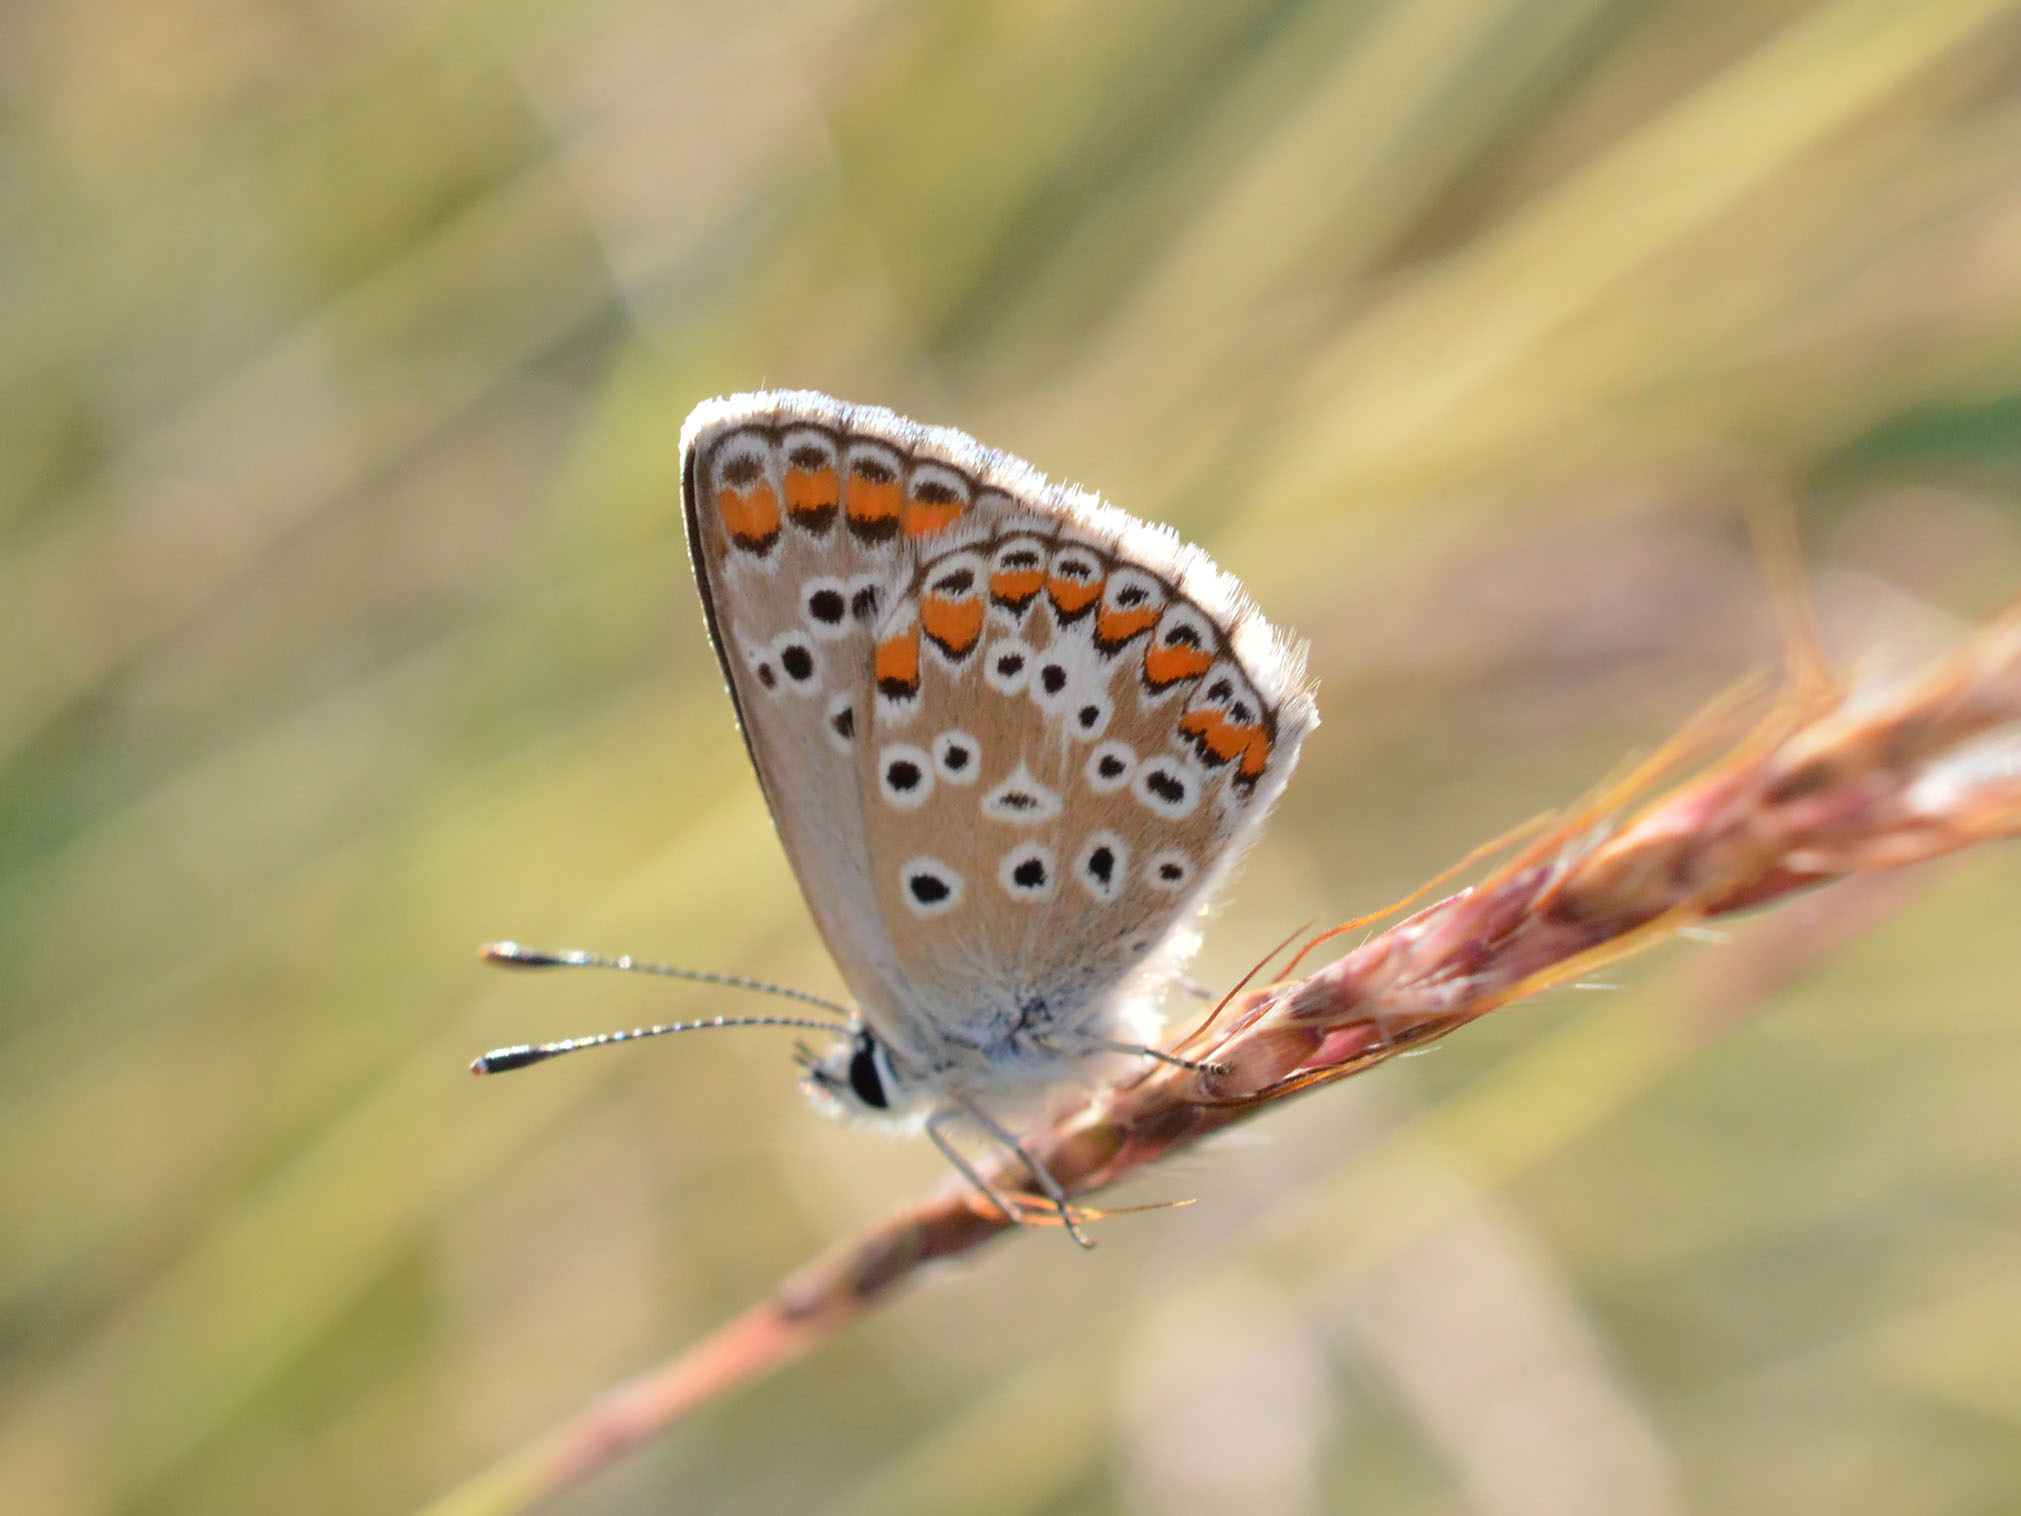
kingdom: Animalia
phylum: Arthropoda
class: Insecta
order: Lepidoptera
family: Lycaenidae
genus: Aricia
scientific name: Aricia agestis
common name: Brown argus
